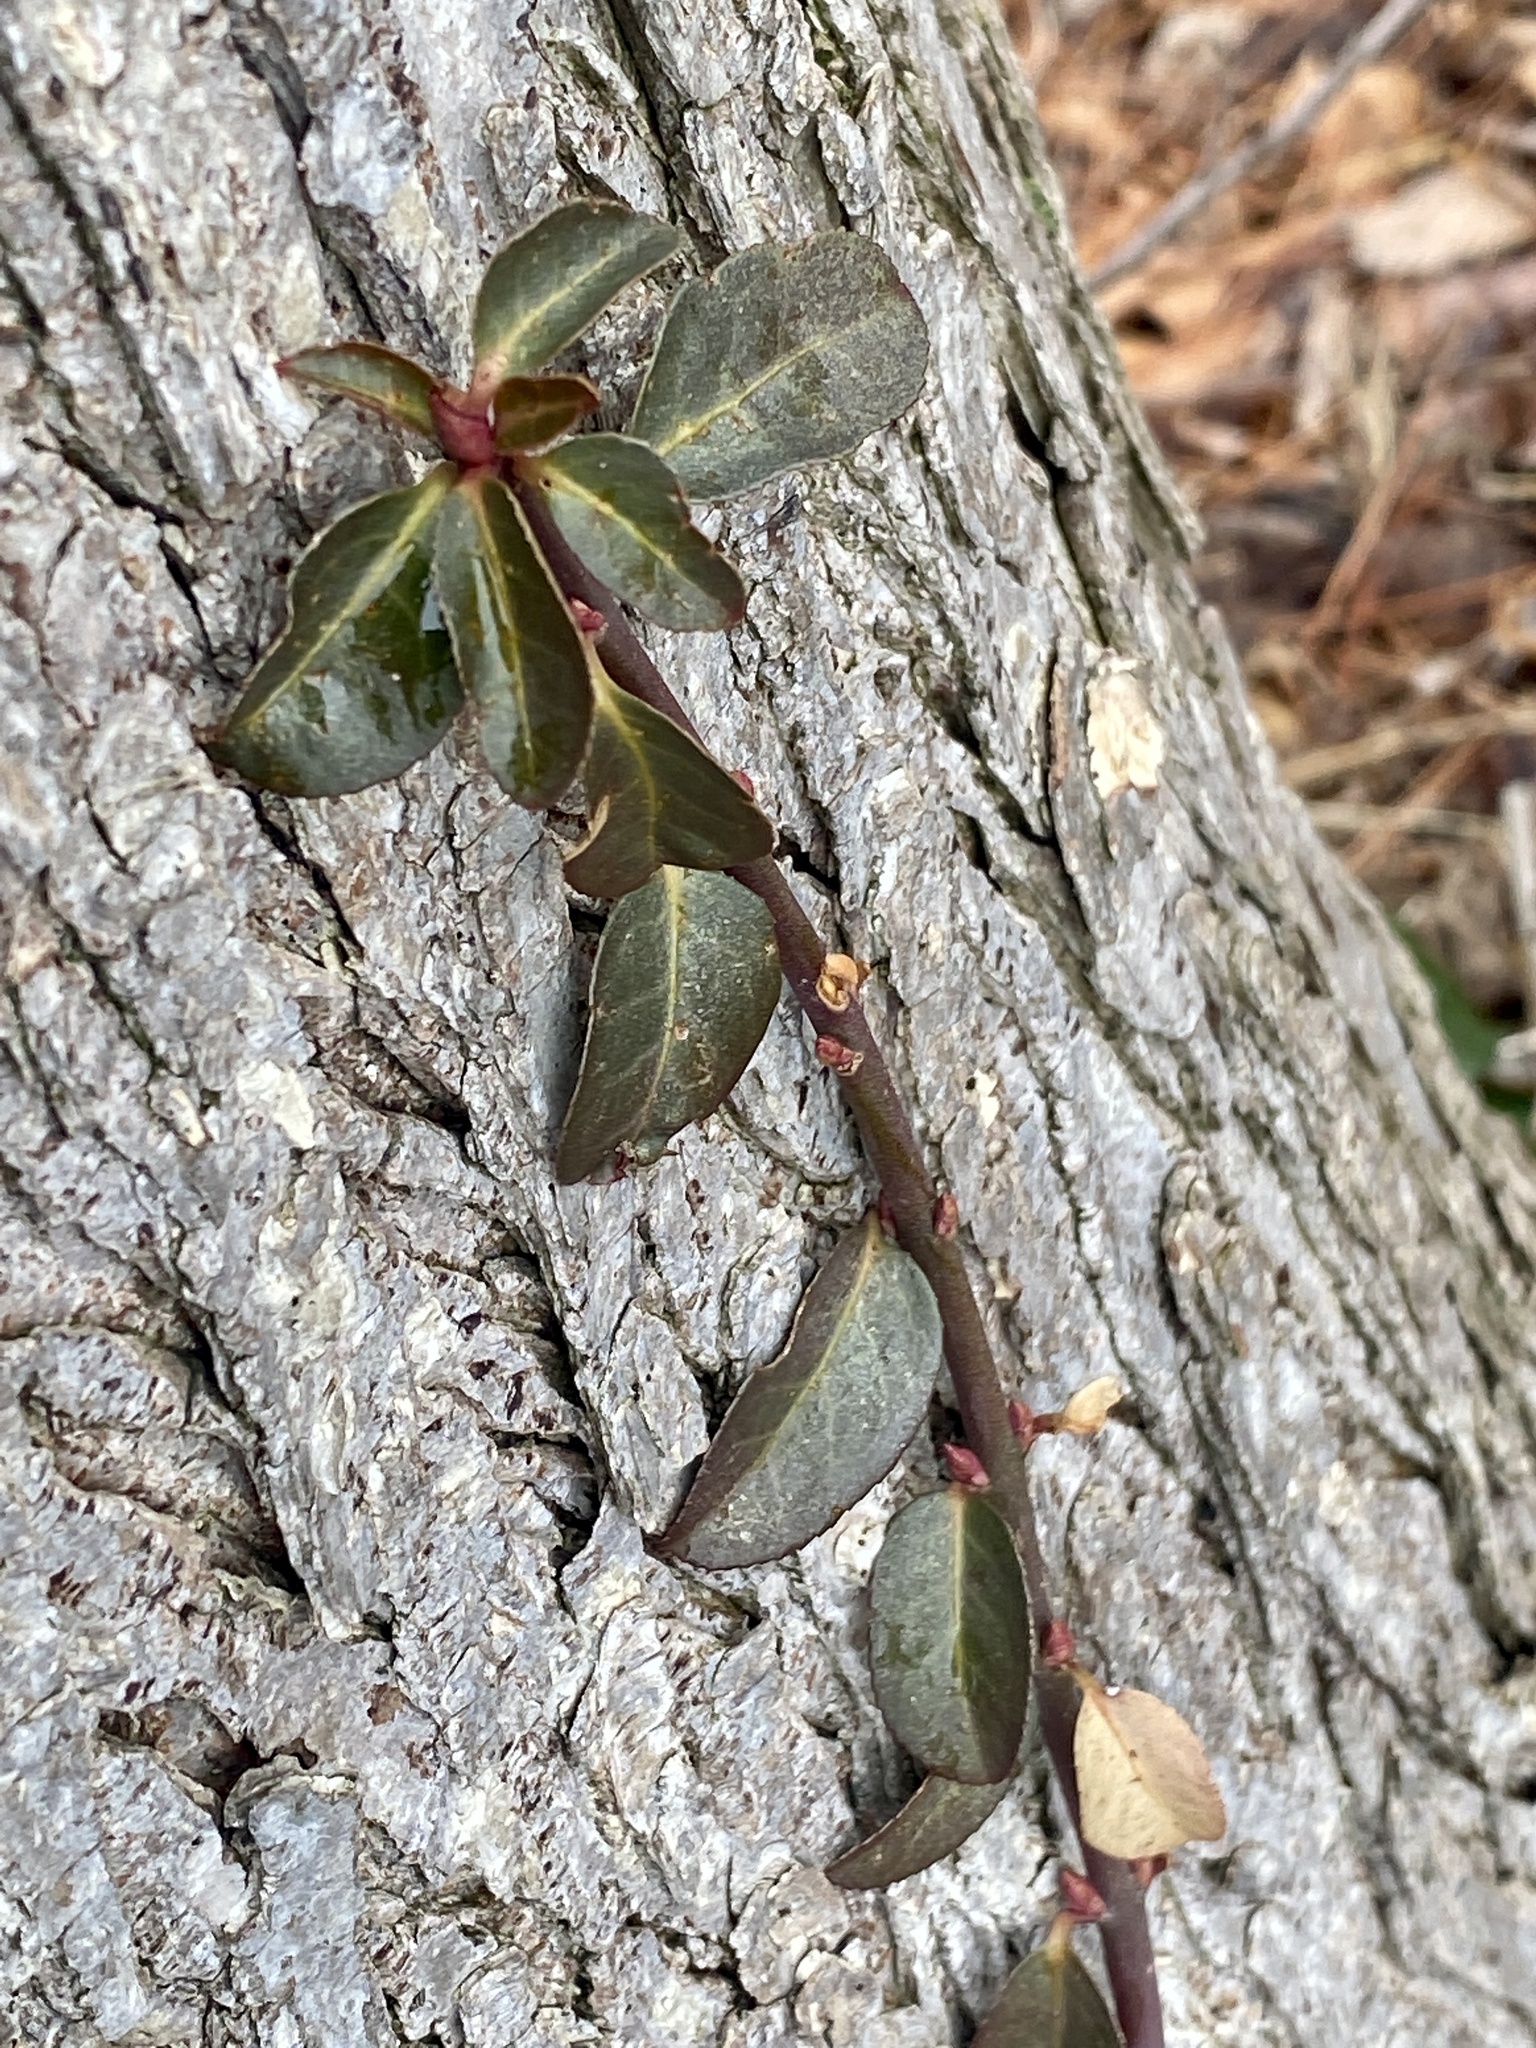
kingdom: Plantae
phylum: Tracheophyta
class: Magnoliopsida
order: Celastrales
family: Celastraceae
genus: Euonymus
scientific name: Euonymus fortunei
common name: Climbing euonymus
